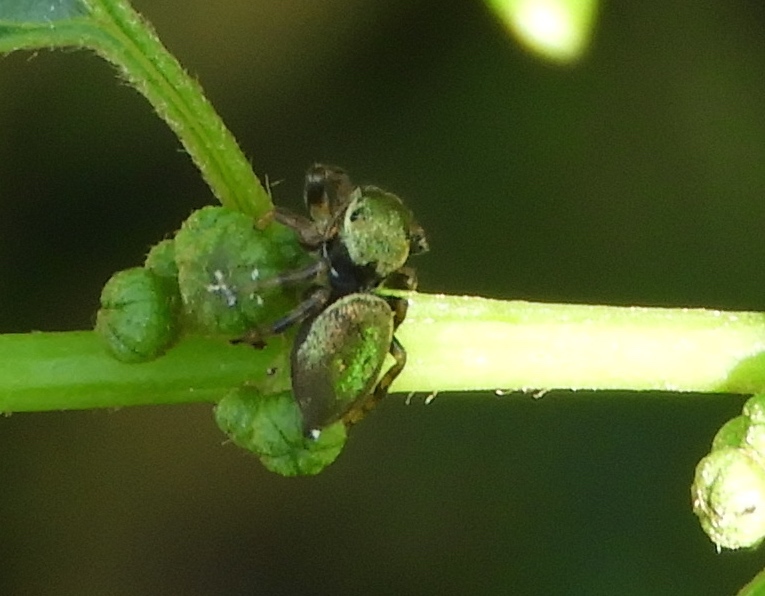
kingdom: Animalia
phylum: Arthropoda
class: Arachnida
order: Araneae
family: Salticidae
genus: Sassacus
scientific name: Sassacus
